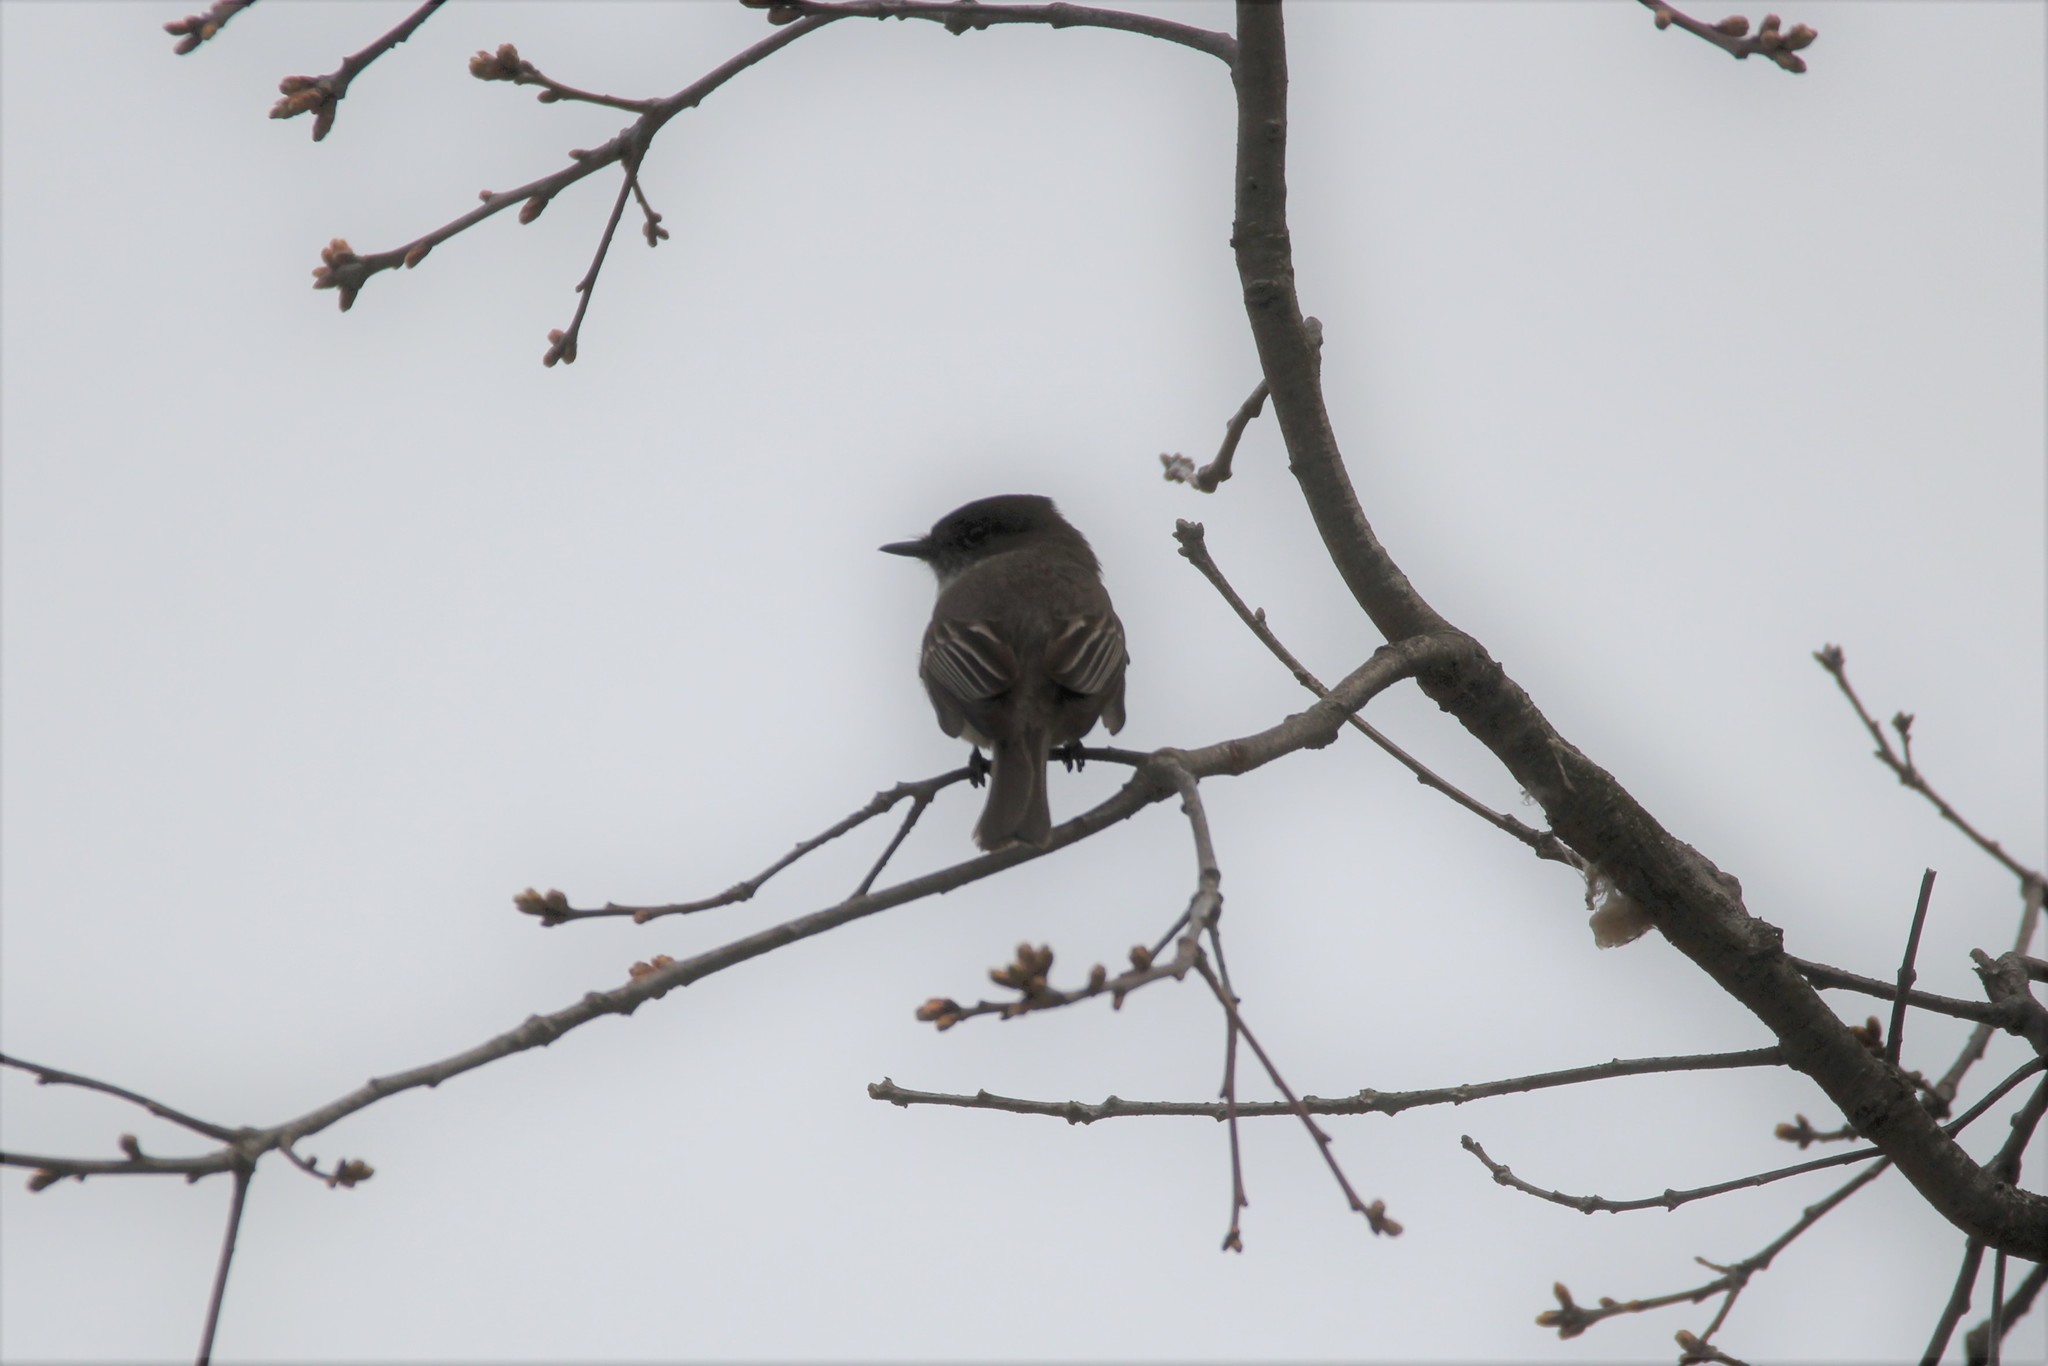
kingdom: Animalia
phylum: Chordata
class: Aves
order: Passeriformes
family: Tyrannidae
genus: Sayornis
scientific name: Sayornis phoebe
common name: Eastern phoebe
